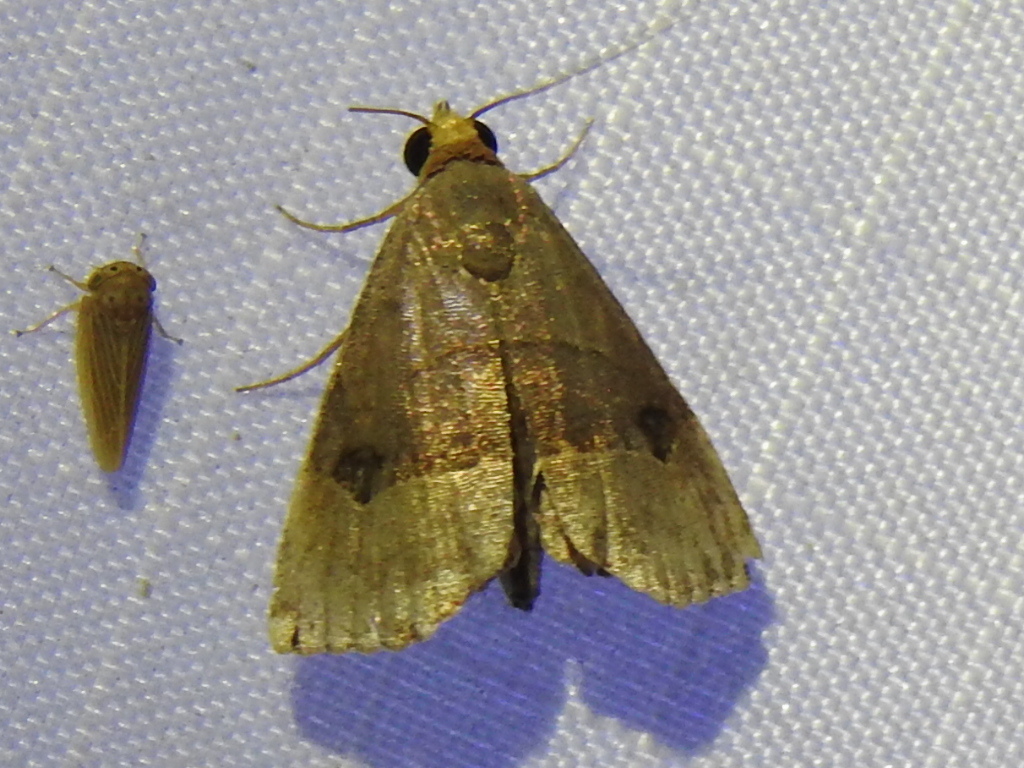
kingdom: Animalia
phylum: Arthropoda
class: Insecta
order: Lepidoptera
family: Noctuidae
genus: Abacena
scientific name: Abacena mundula
